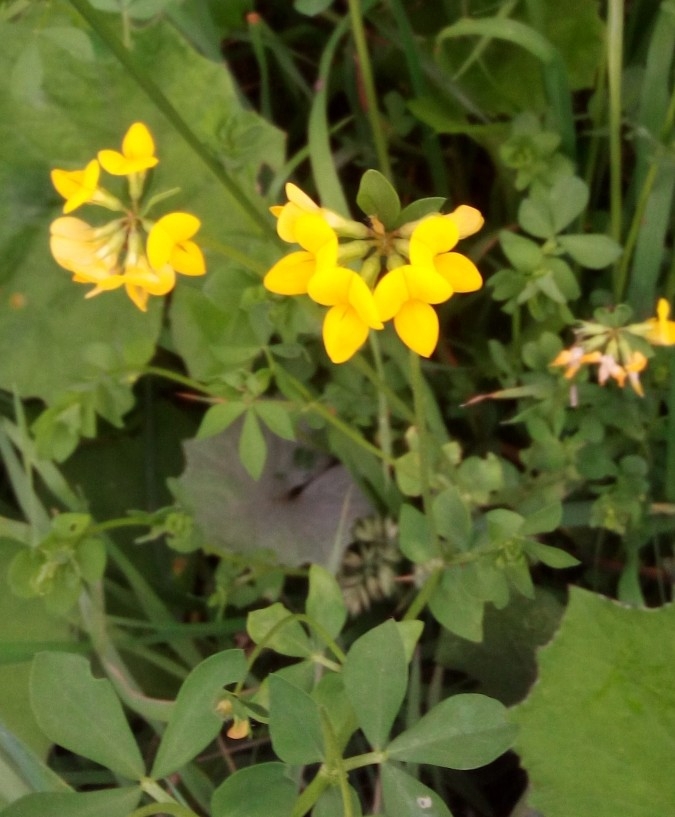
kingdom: Plantae
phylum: Tracheophyta
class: Magnoliopsida
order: Fabales
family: Fabaceae
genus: Lotus
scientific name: Lotus corniculatus
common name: Common bird's-foot-trefoil
